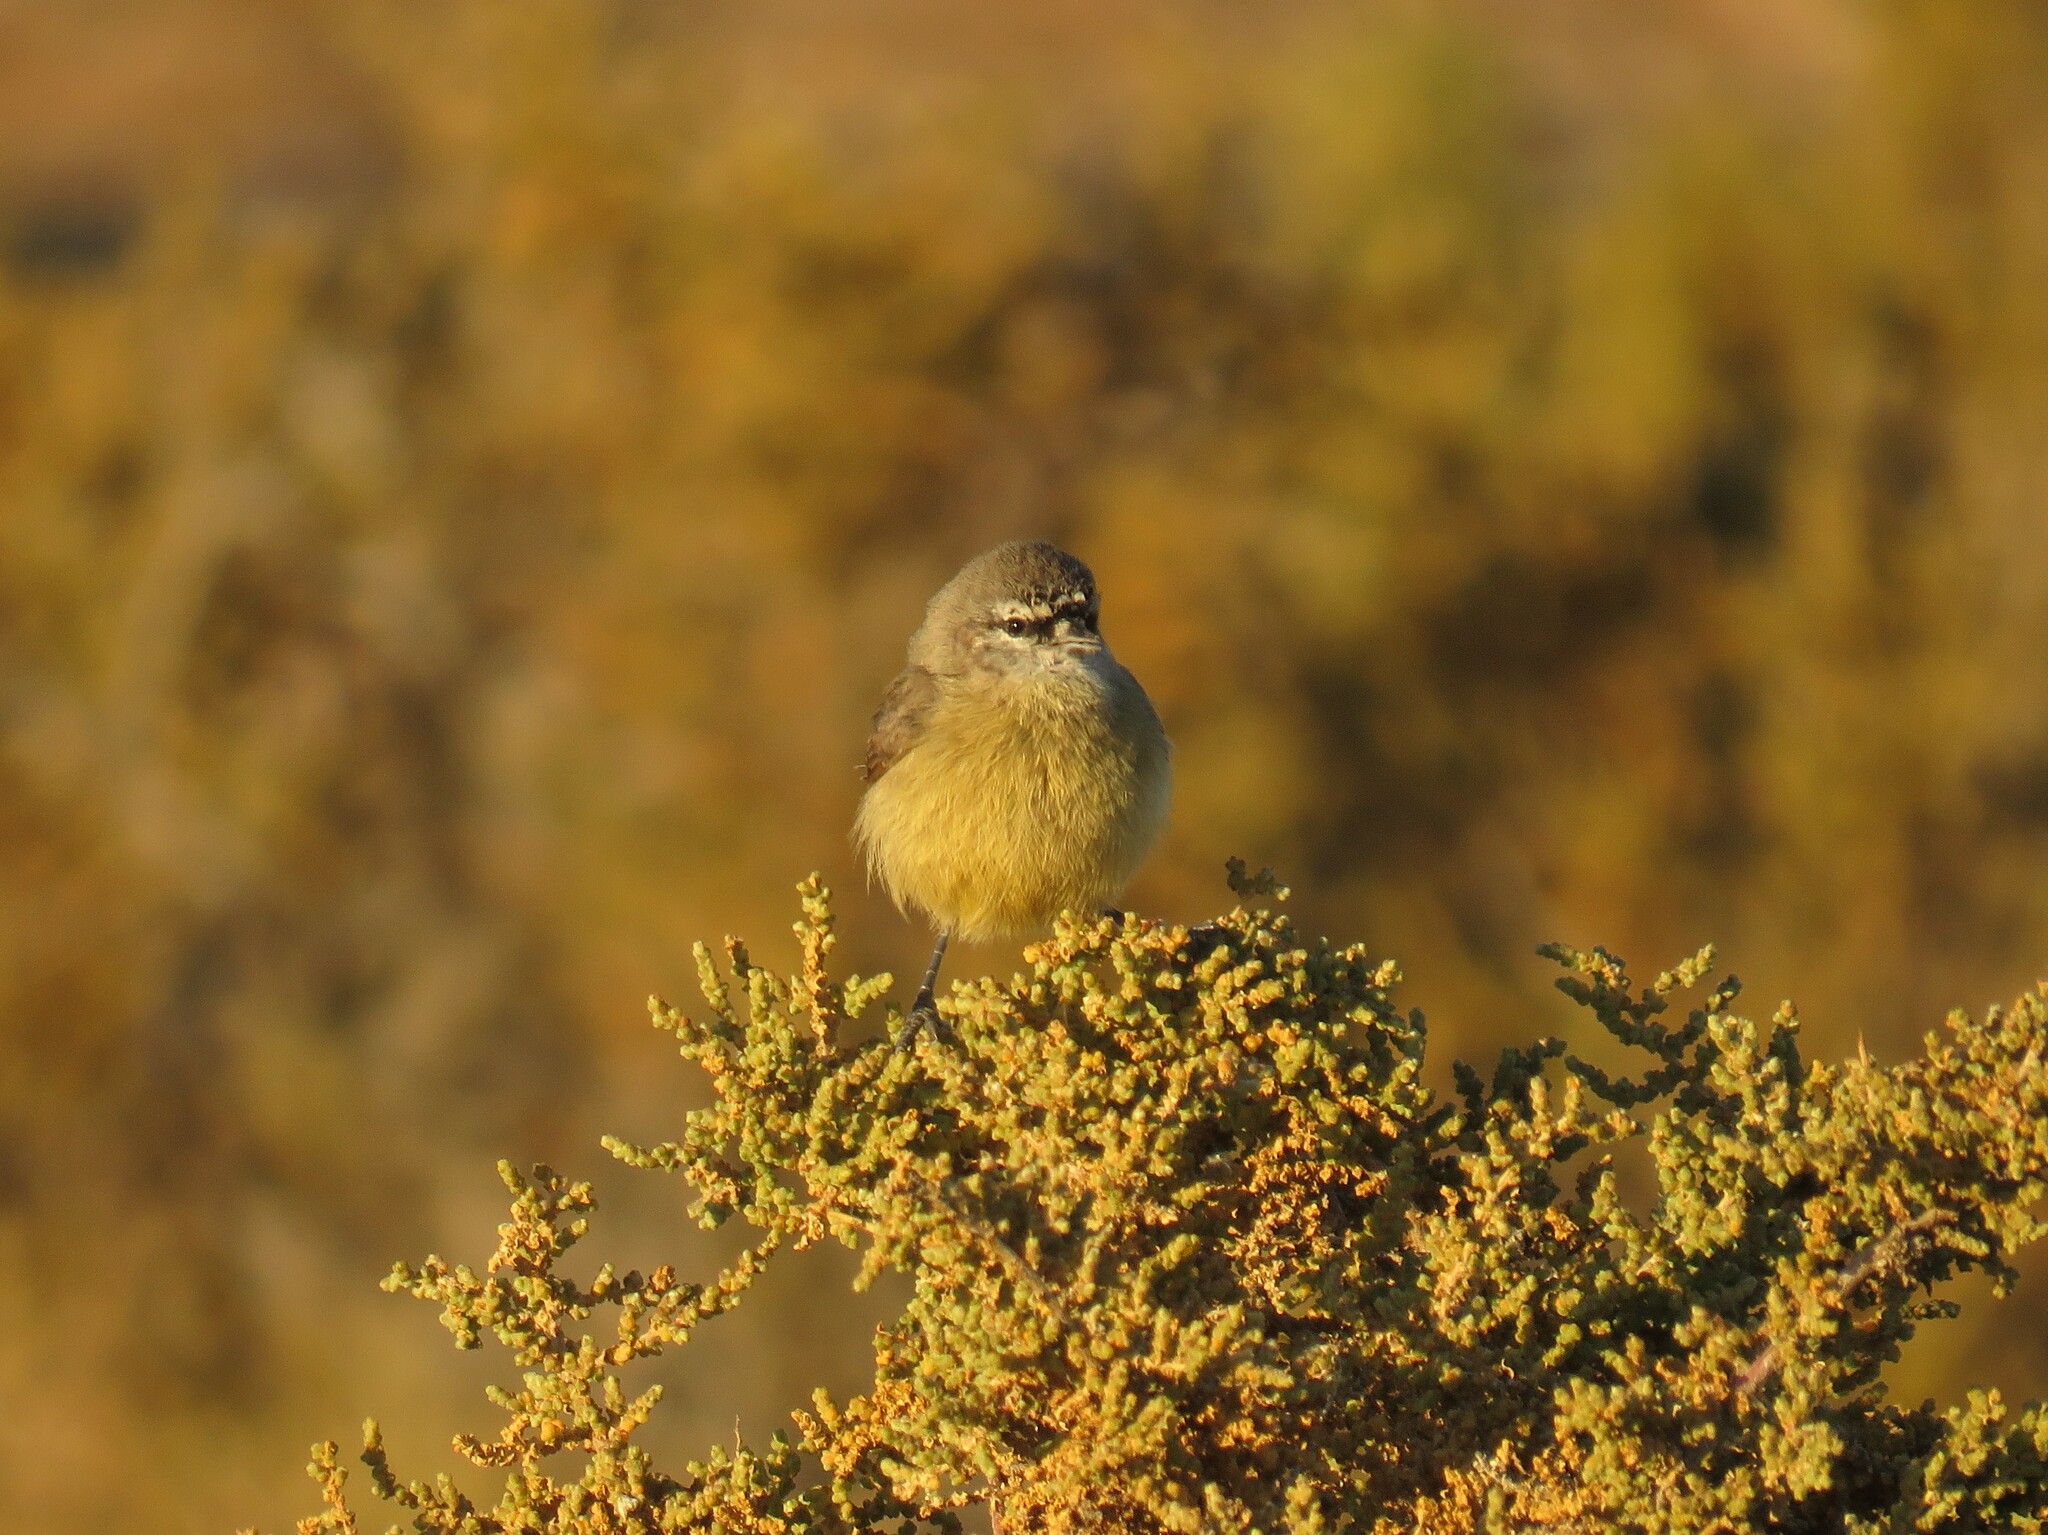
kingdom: Animalia
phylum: Chordata
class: Aves
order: Passeriformes
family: Remizidae
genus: Anthoscopus
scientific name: Anthoscopus minutus
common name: Cape penduline tit
